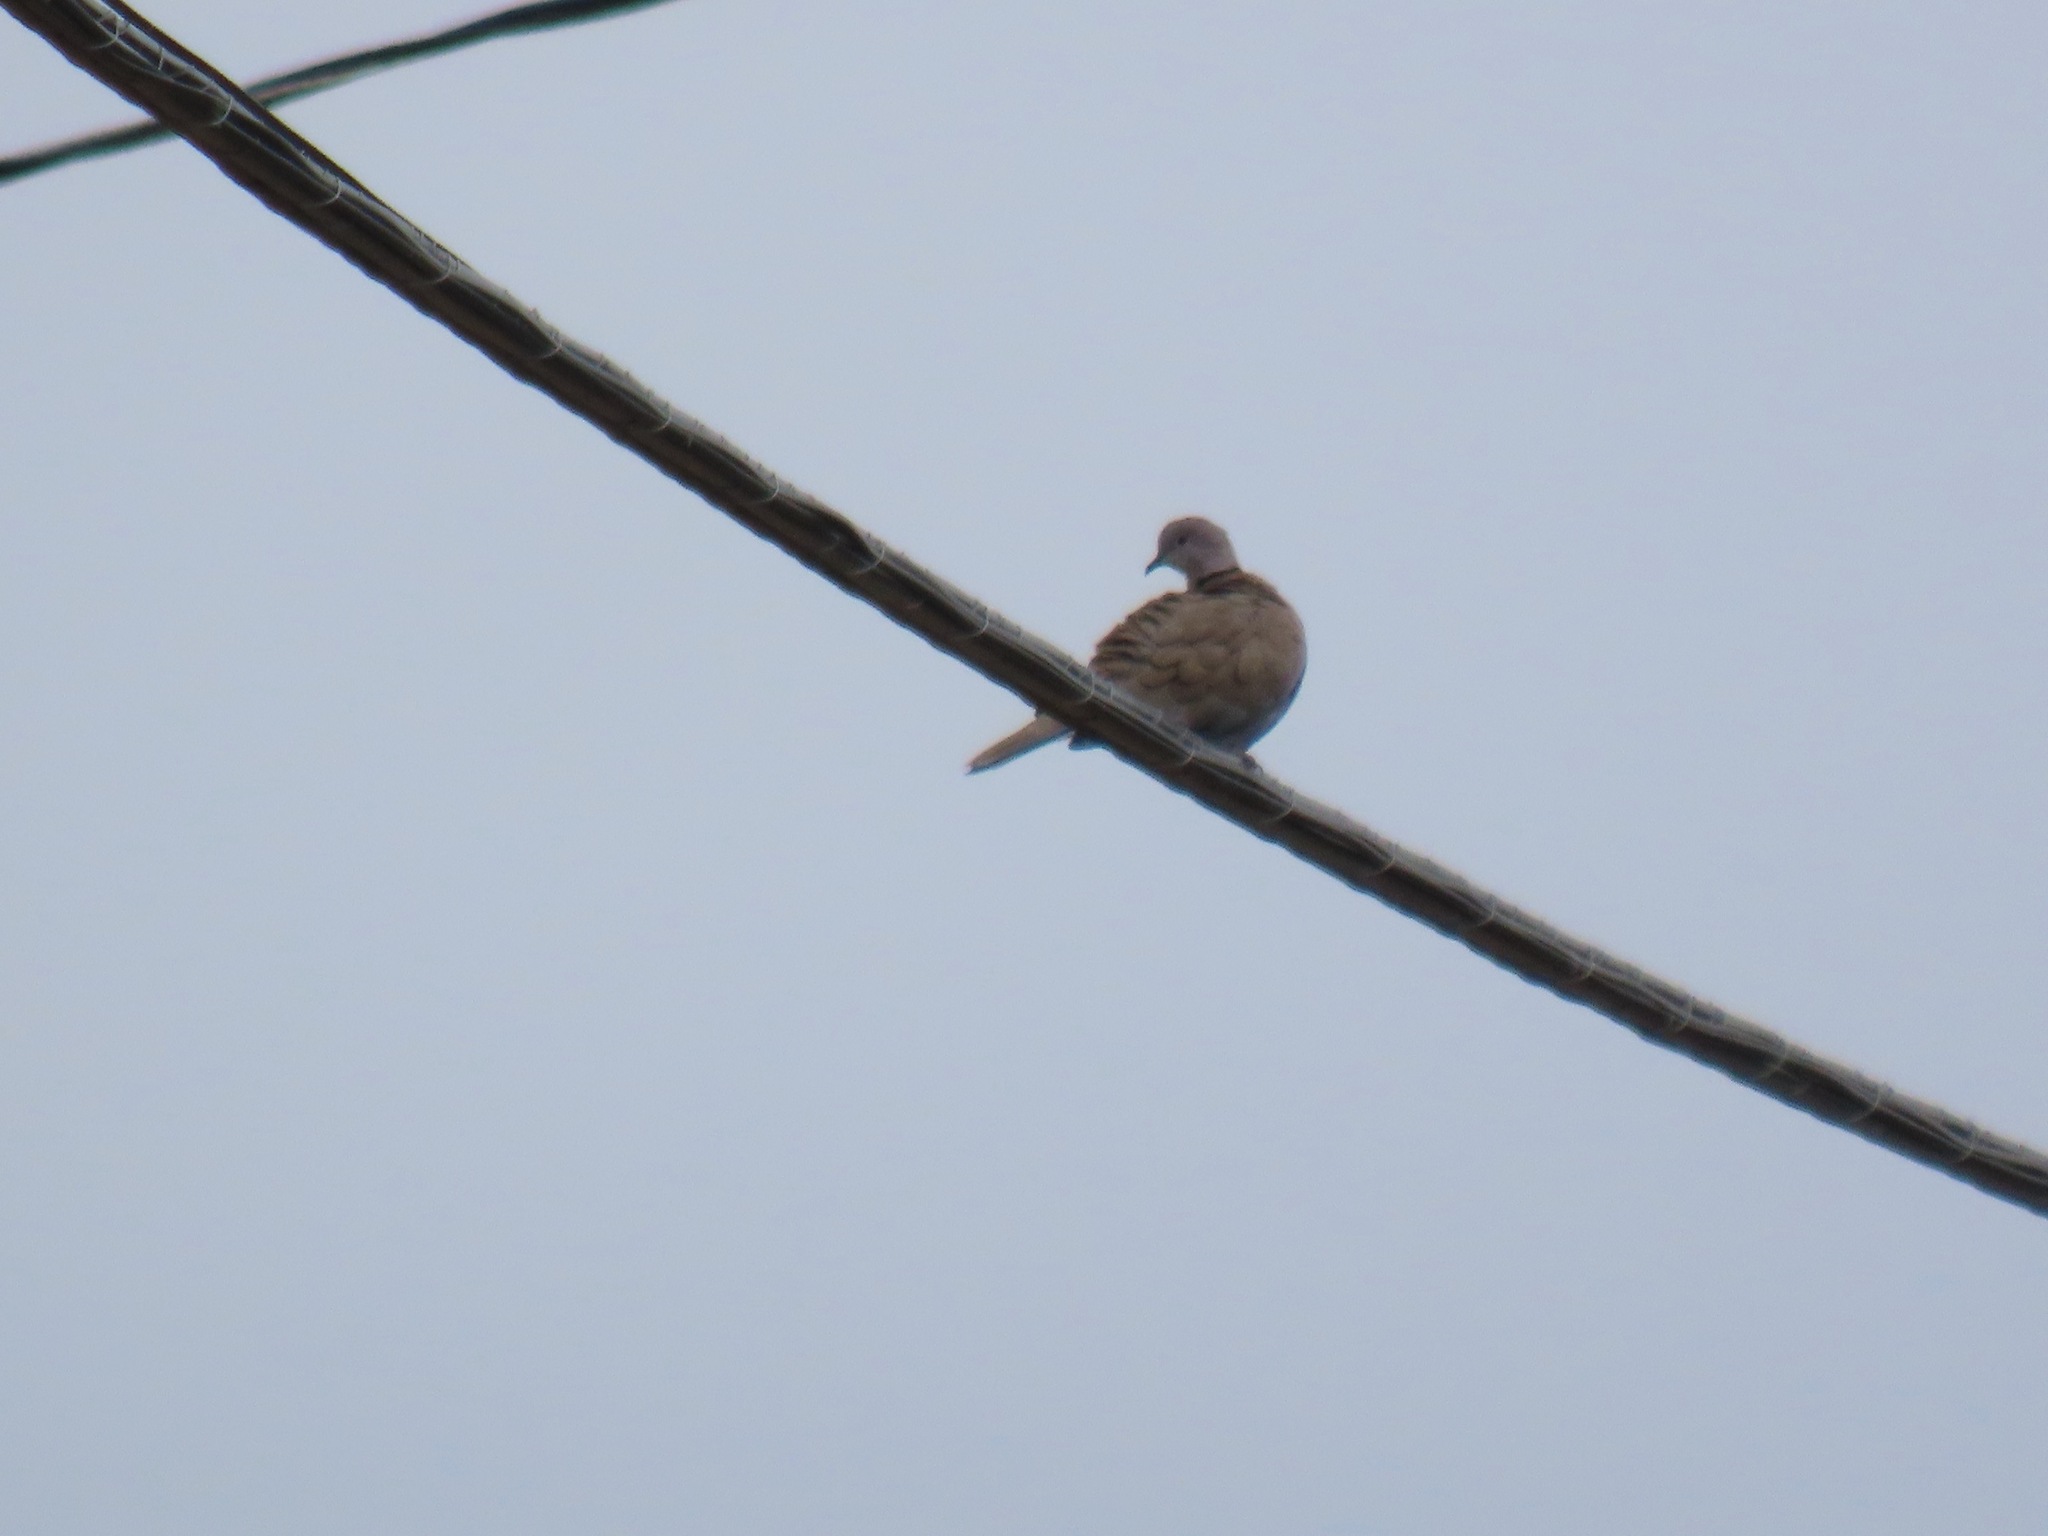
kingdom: Animalia
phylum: Chordata
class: Aves
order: Columbiformes
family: Columbidae
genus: Streptopelia
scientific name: Streptopelia decaocto
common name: Eurasian collared dove
